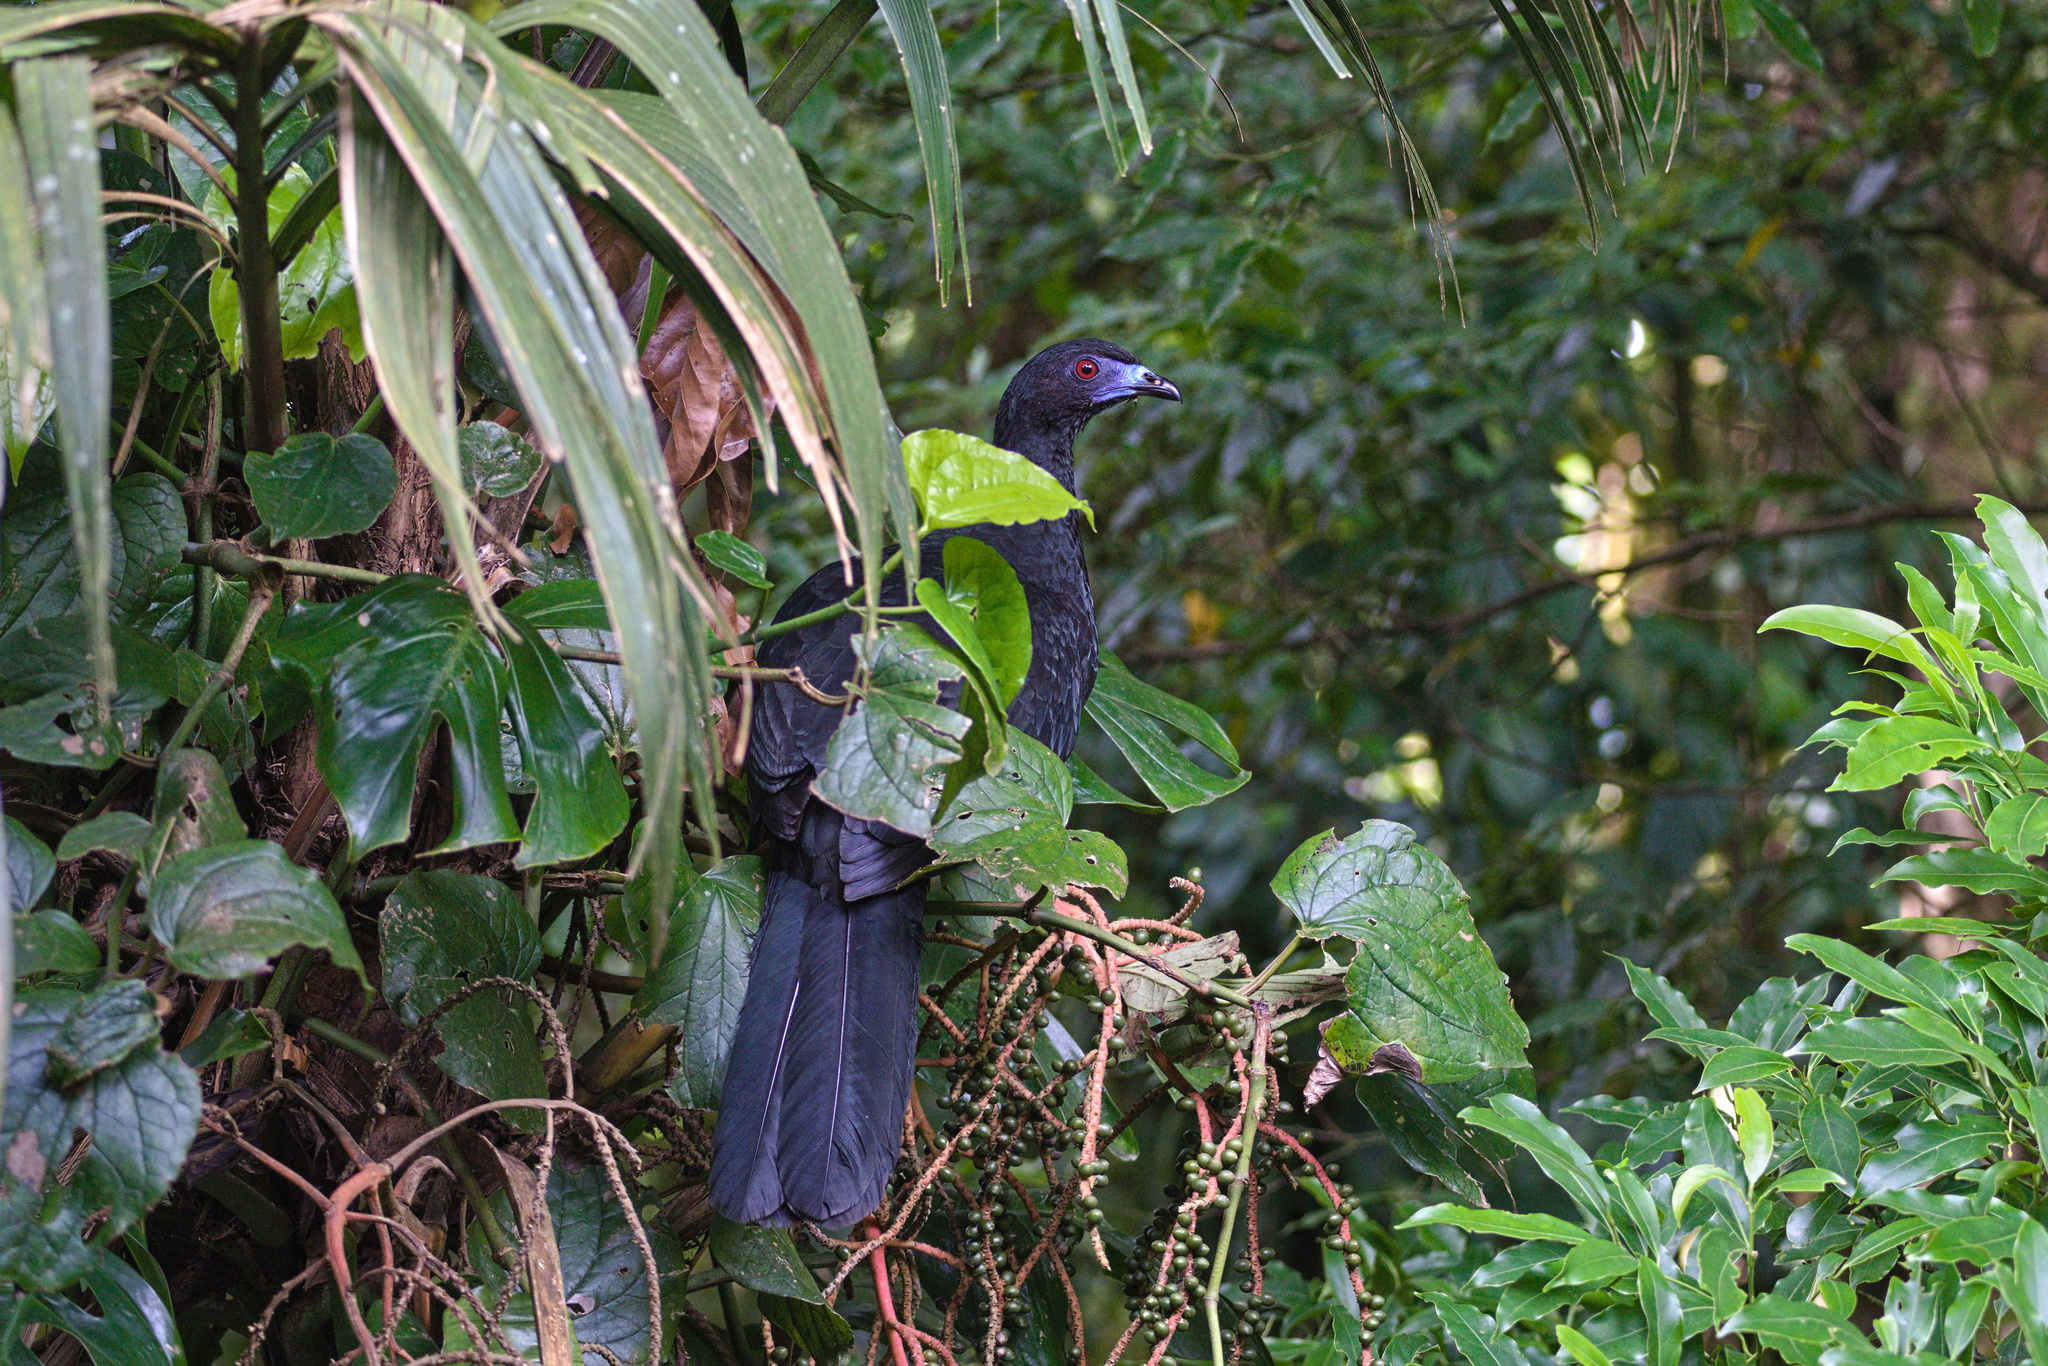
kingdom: Animalia
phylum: Chordata
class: Aves
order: Galliformes
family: Cracidae
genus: Chamaepetes
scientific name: Chamaepetes unicolor
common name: Black guan
